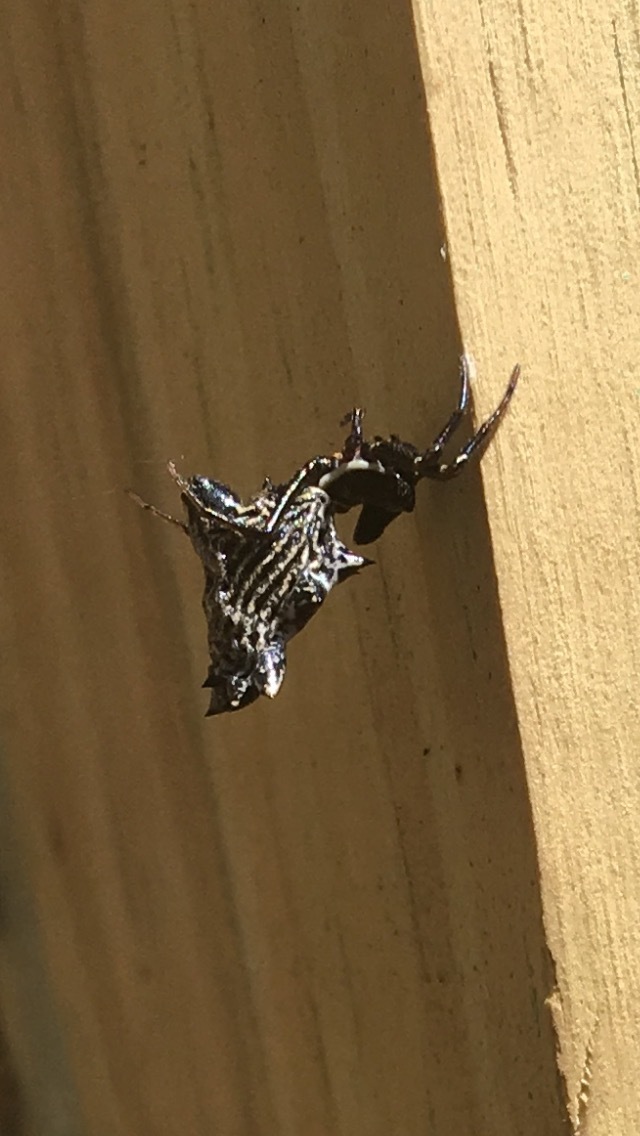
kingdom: Animalia
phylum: Arthropoda
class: Arachnida
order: Araneae
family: Araneidae
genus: Micrathena
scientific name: Micrathena gracilis
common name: Orb weavers
